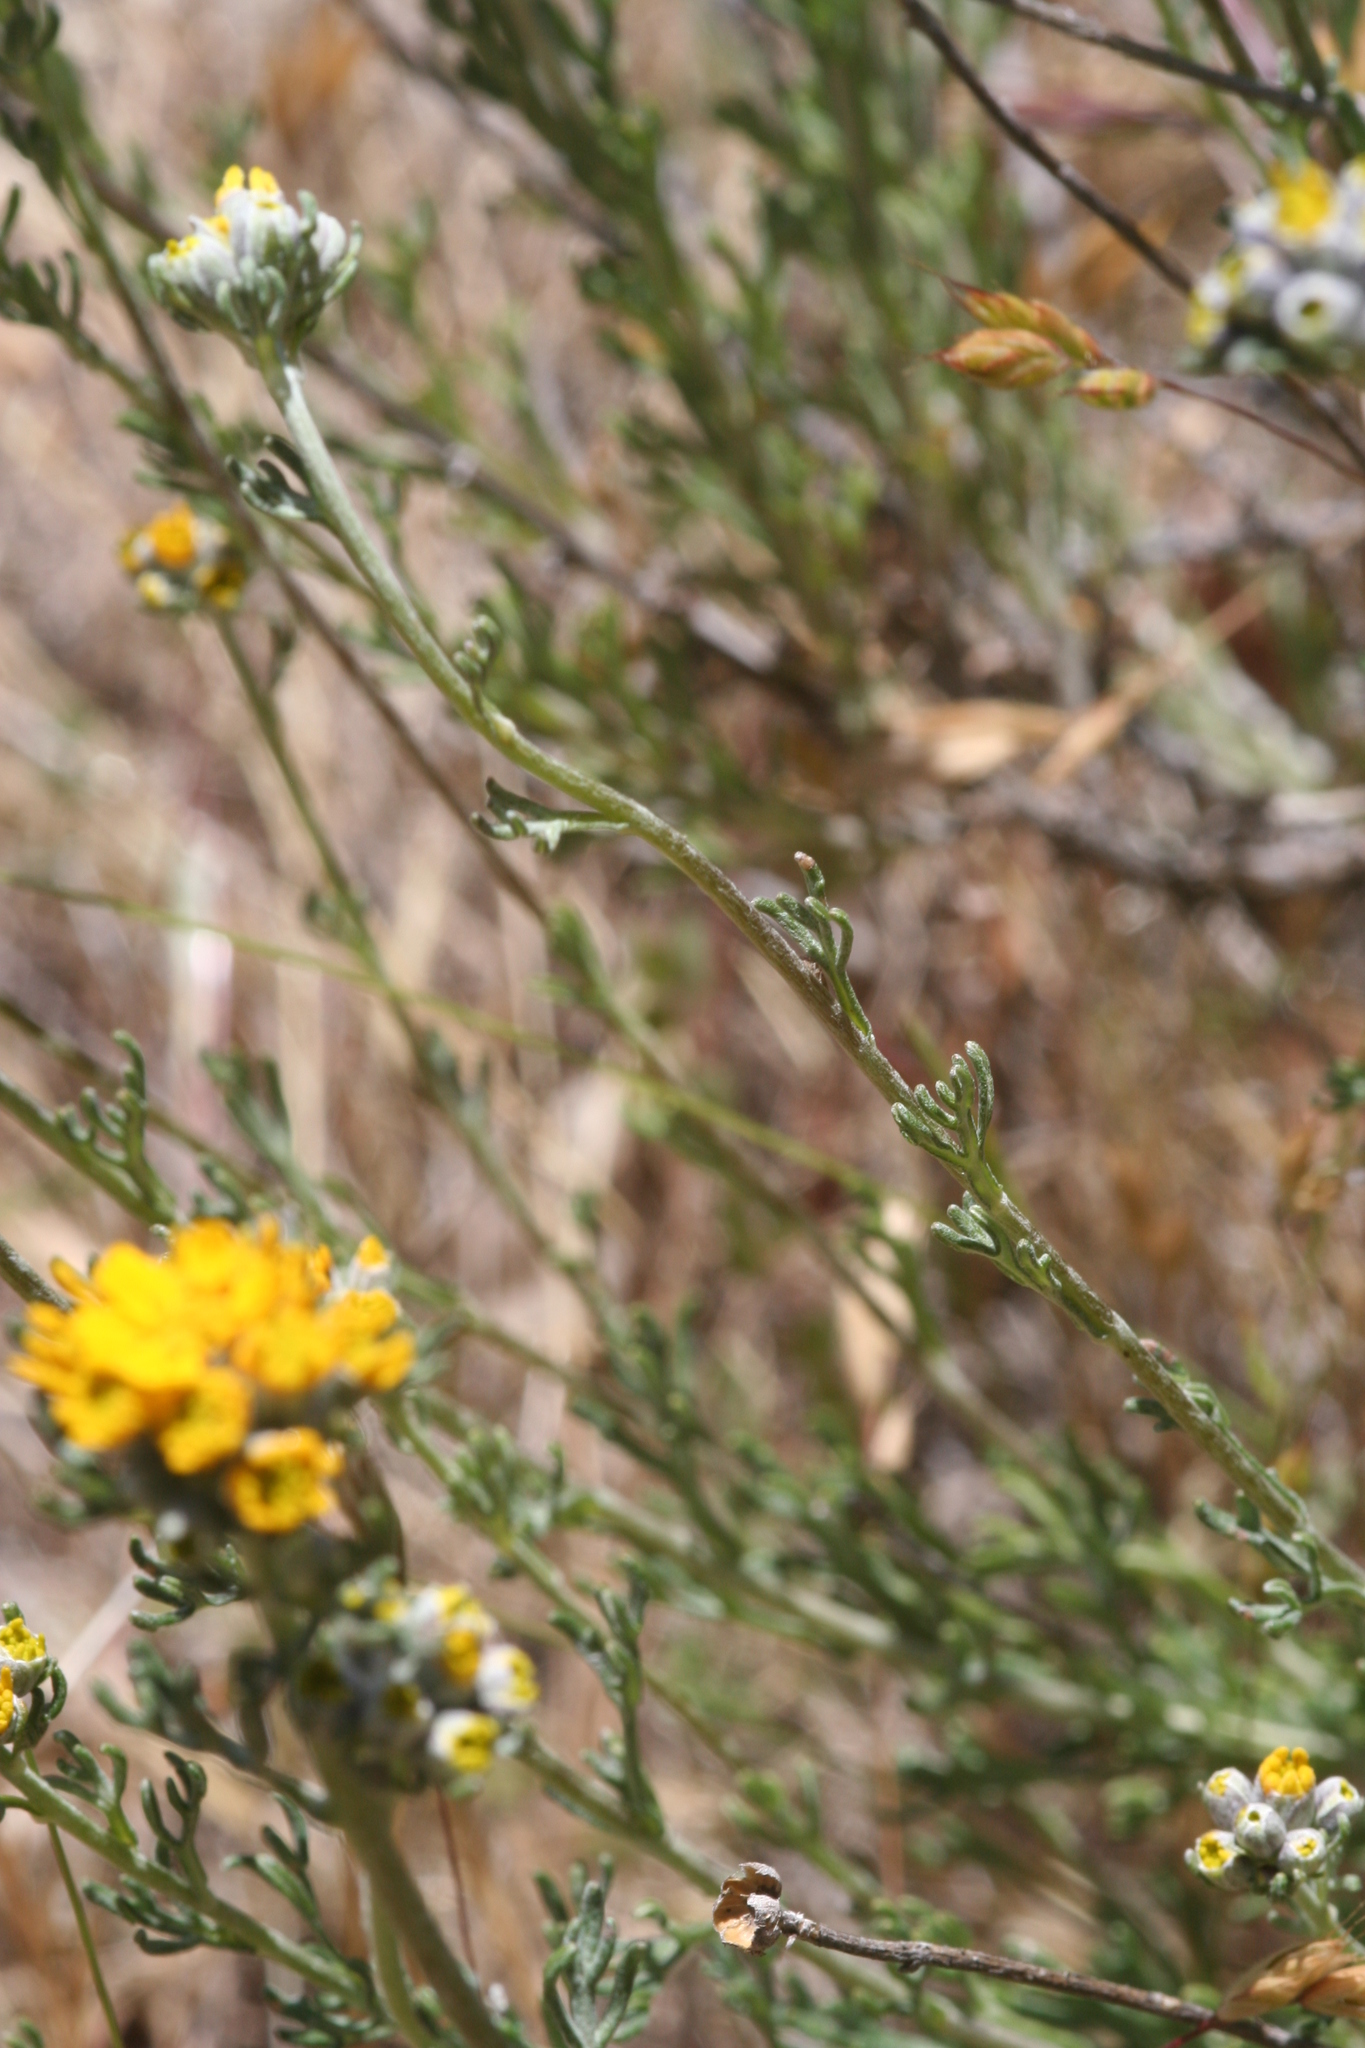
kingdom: Plantae
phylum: Tracheophyta
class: Magnoliopsida
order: Asterales
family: Asteraceae
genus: Eriophyllum
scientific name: Eriophyllum confertiflorum
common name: Golden-yarrow
